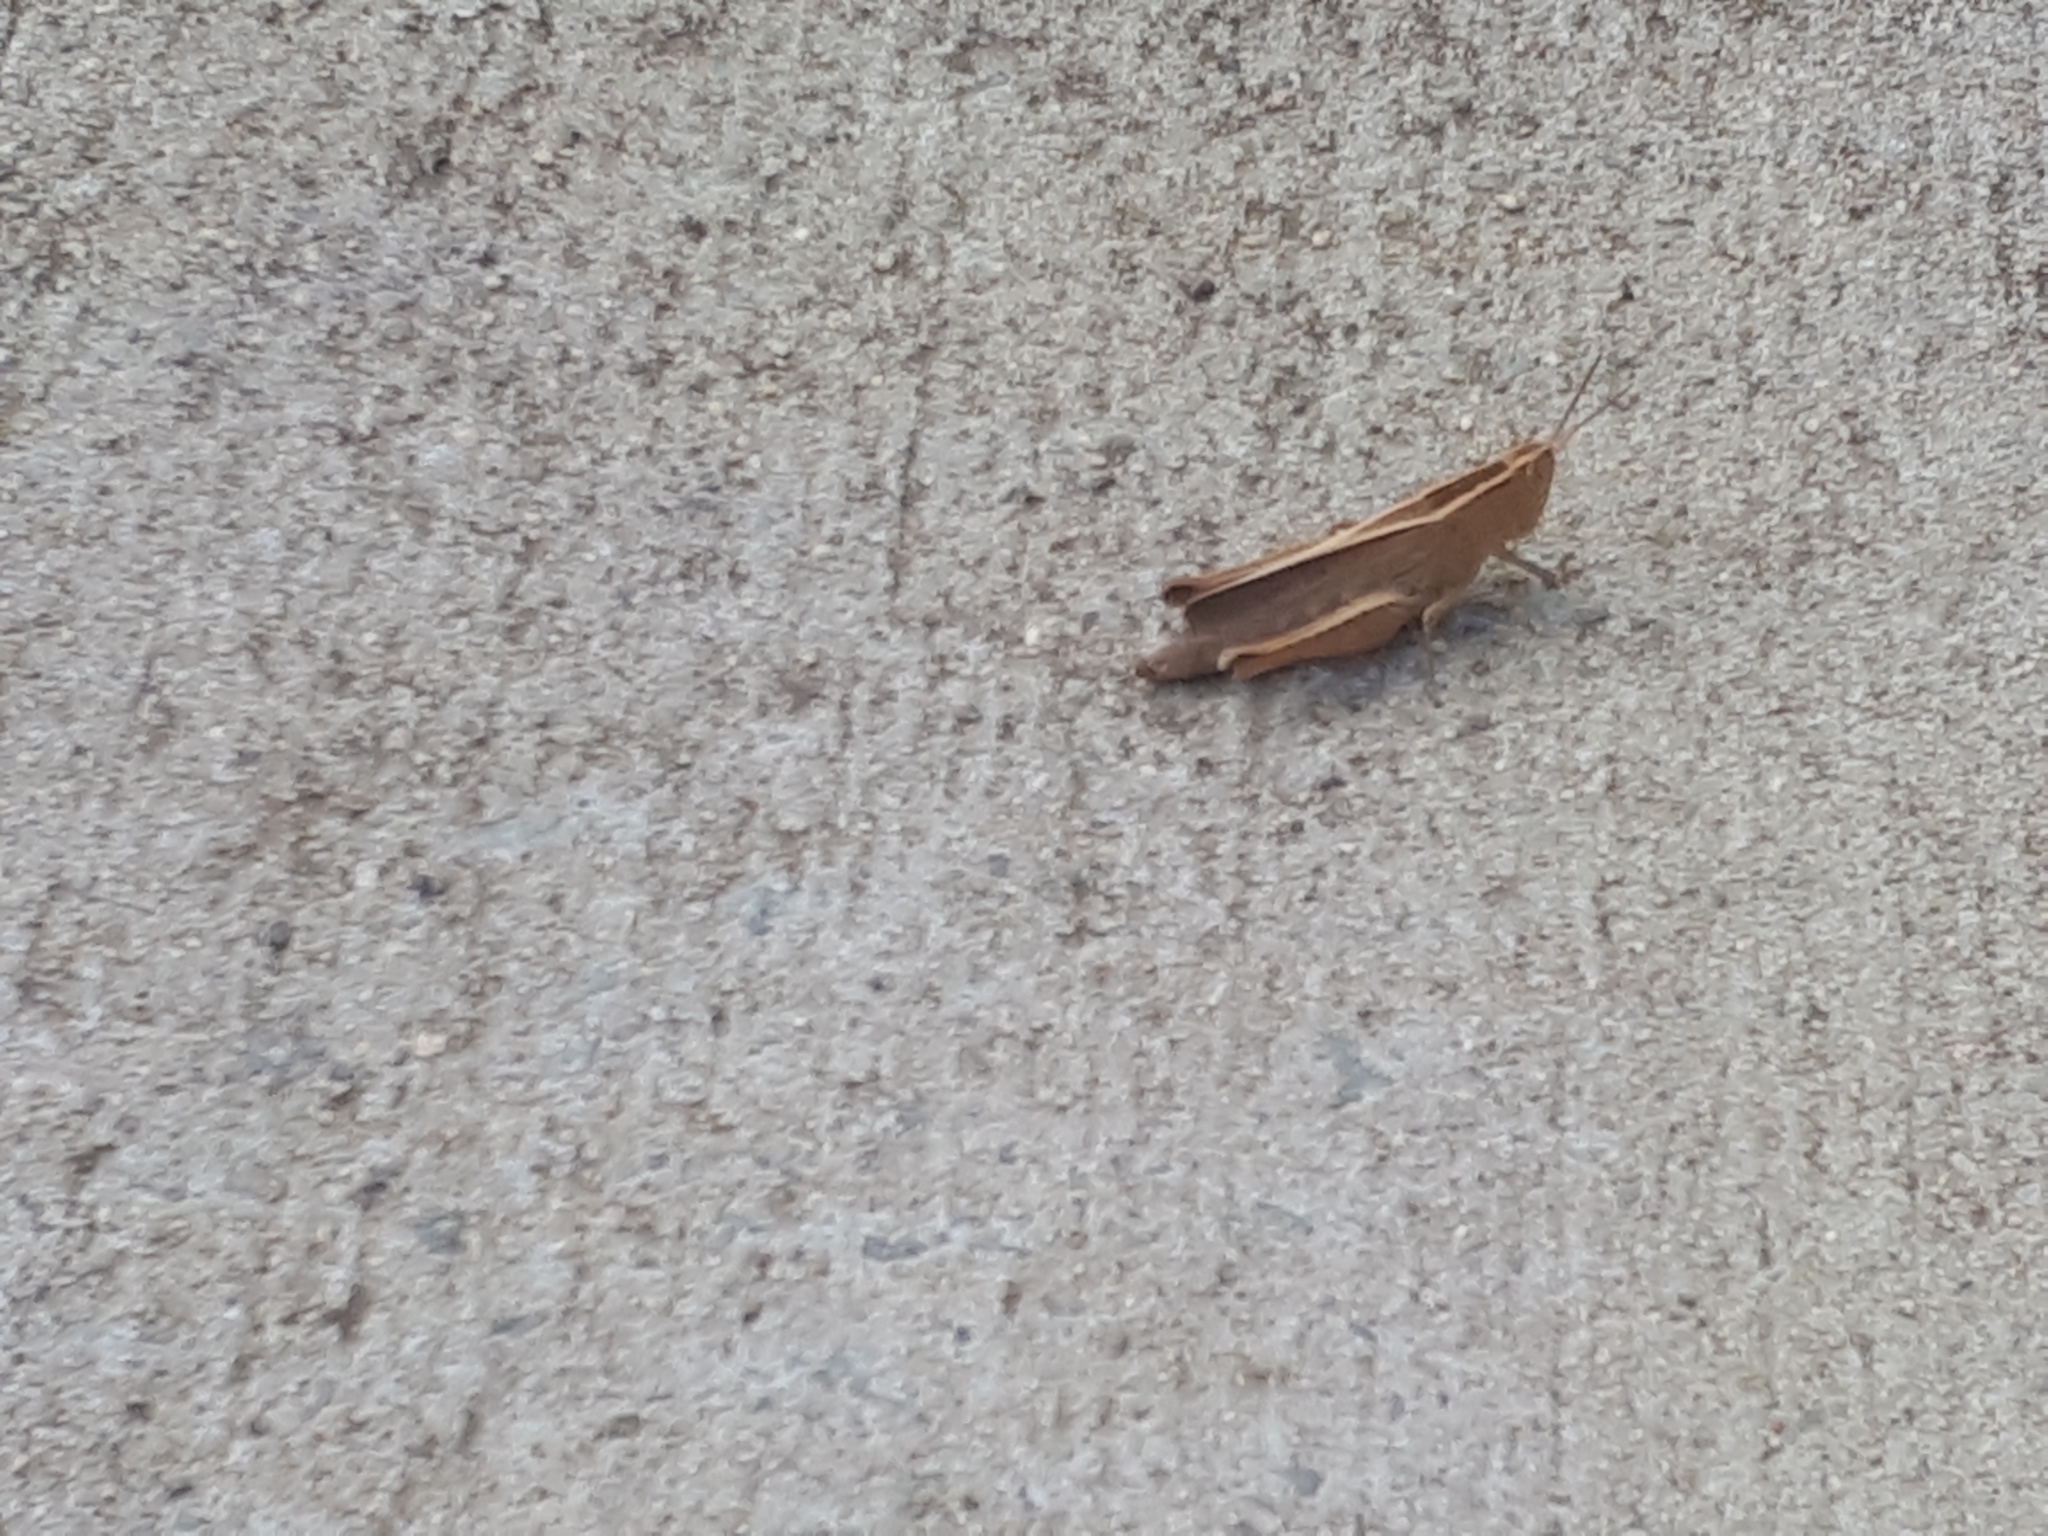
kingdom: Animalia
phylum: Arthropoda
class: Insecta
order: Orthoptera
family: Acrididae
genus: Apotropis
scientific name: Apotropis tricarinata
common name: Eastern striped grasshopper
